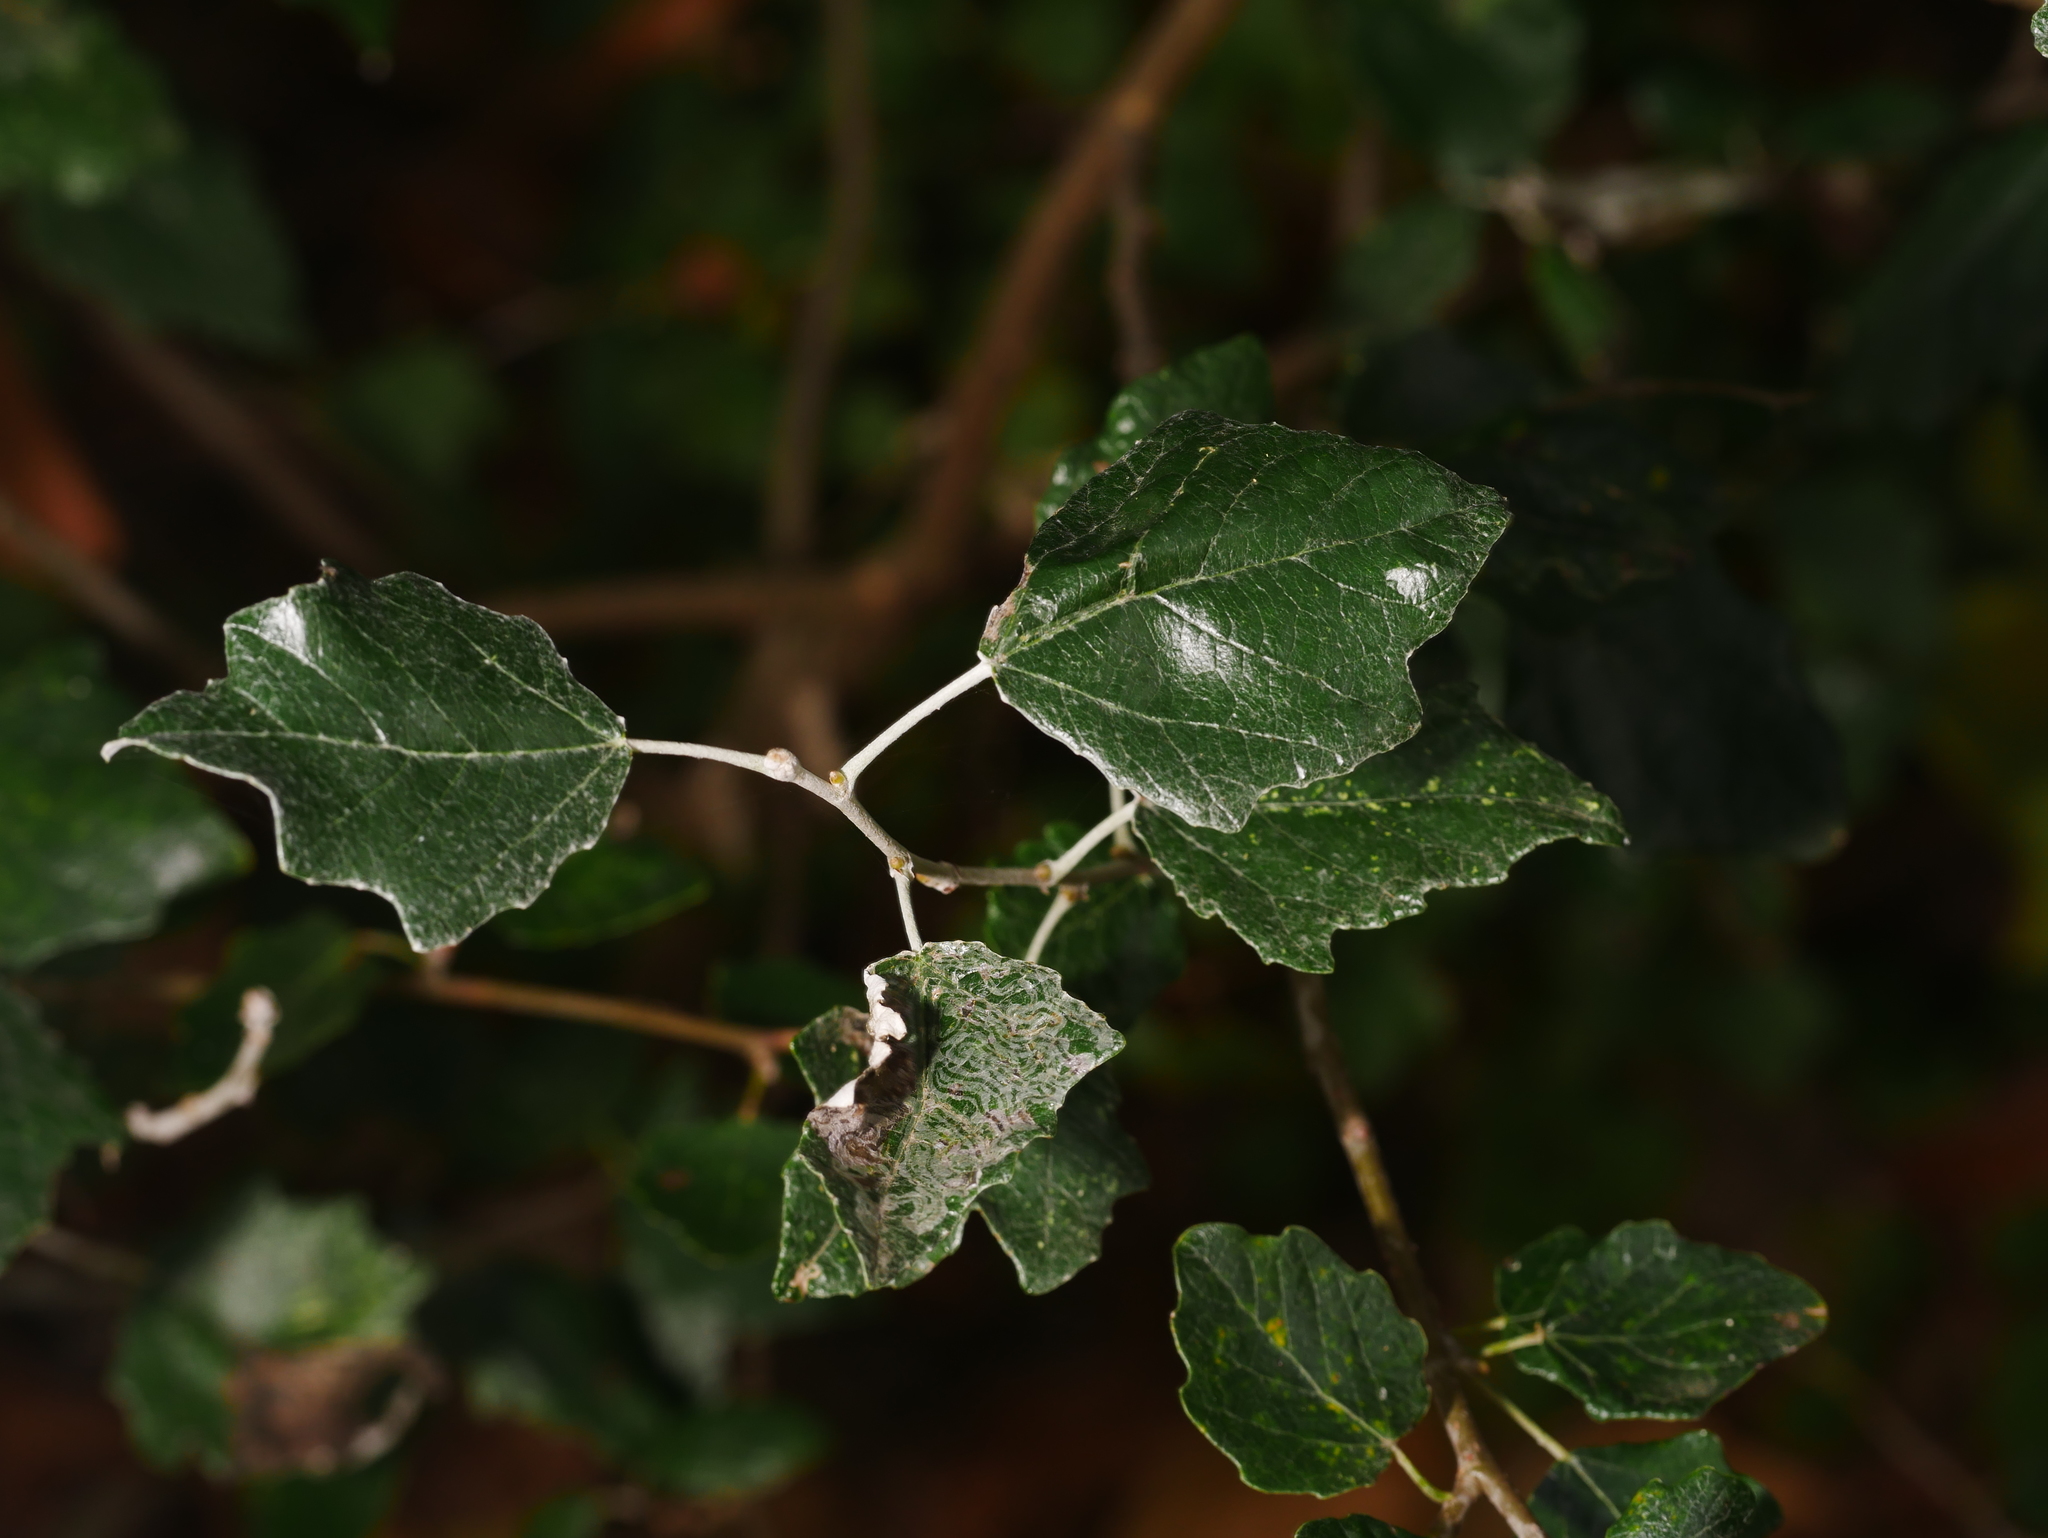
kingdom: Plantae
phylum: Tracheophyta
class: Magnoliopsida
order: Malpighiales
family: Salicaceae
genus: Populus
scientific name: Populus alba
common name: White poplar
